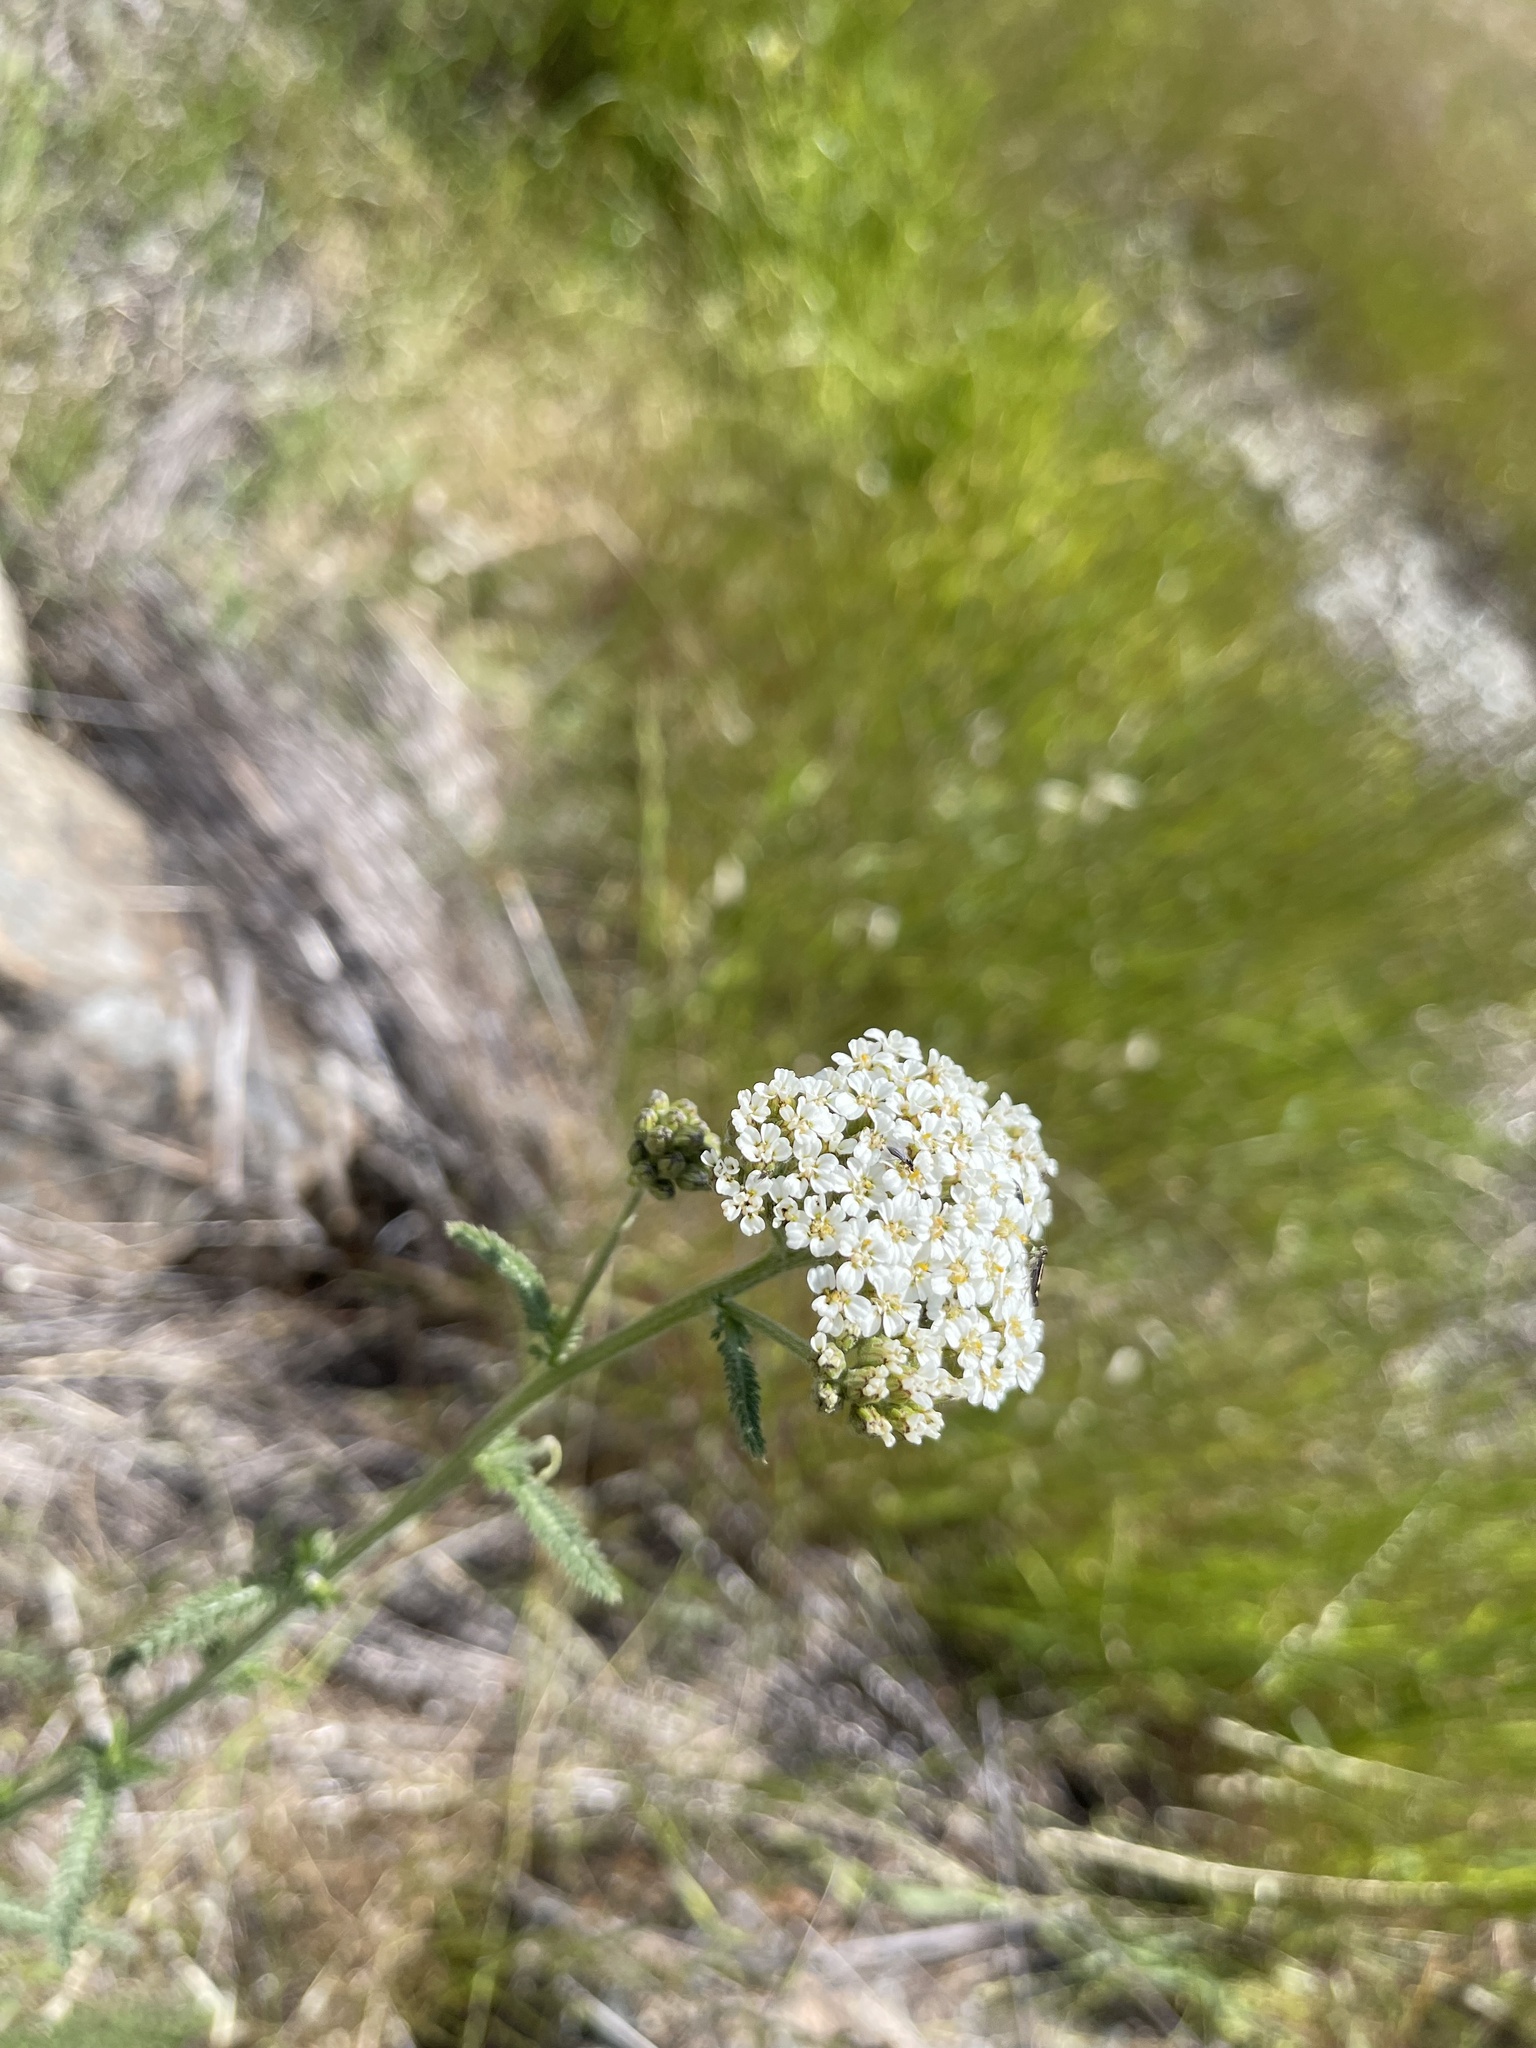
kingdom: Plantae
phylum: Tracheophyta
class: Magnoliopsida
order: Asterales
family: Asteraceae
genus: Achillea
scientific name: Achillea millefolium
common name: Yarrow
